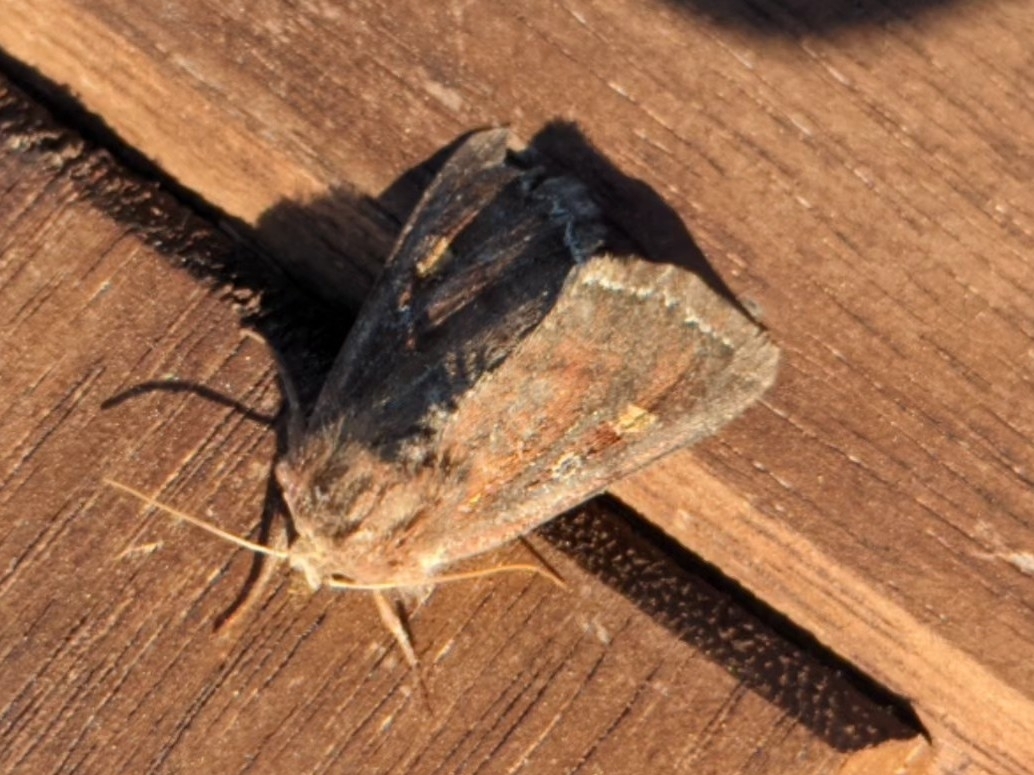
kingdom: Animalia
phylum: Arthropoda
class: Insecta
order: Lepidoptera
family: Noctuidae
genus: Lacanobia
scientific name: Lacanobia oleracea
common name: Bright-line brown-eye
